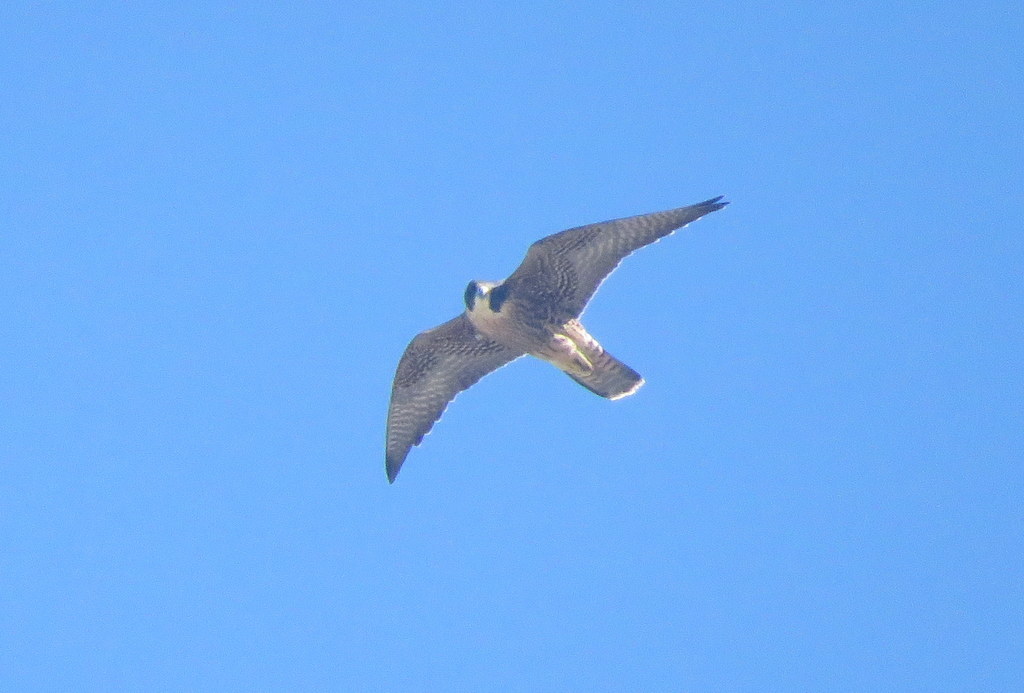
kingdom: Animalia
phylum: Chordata
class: Aves
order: Falconiformes
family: Falconidae
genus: Falco
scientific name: Falco peregrinus
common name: Peregrine falcon
